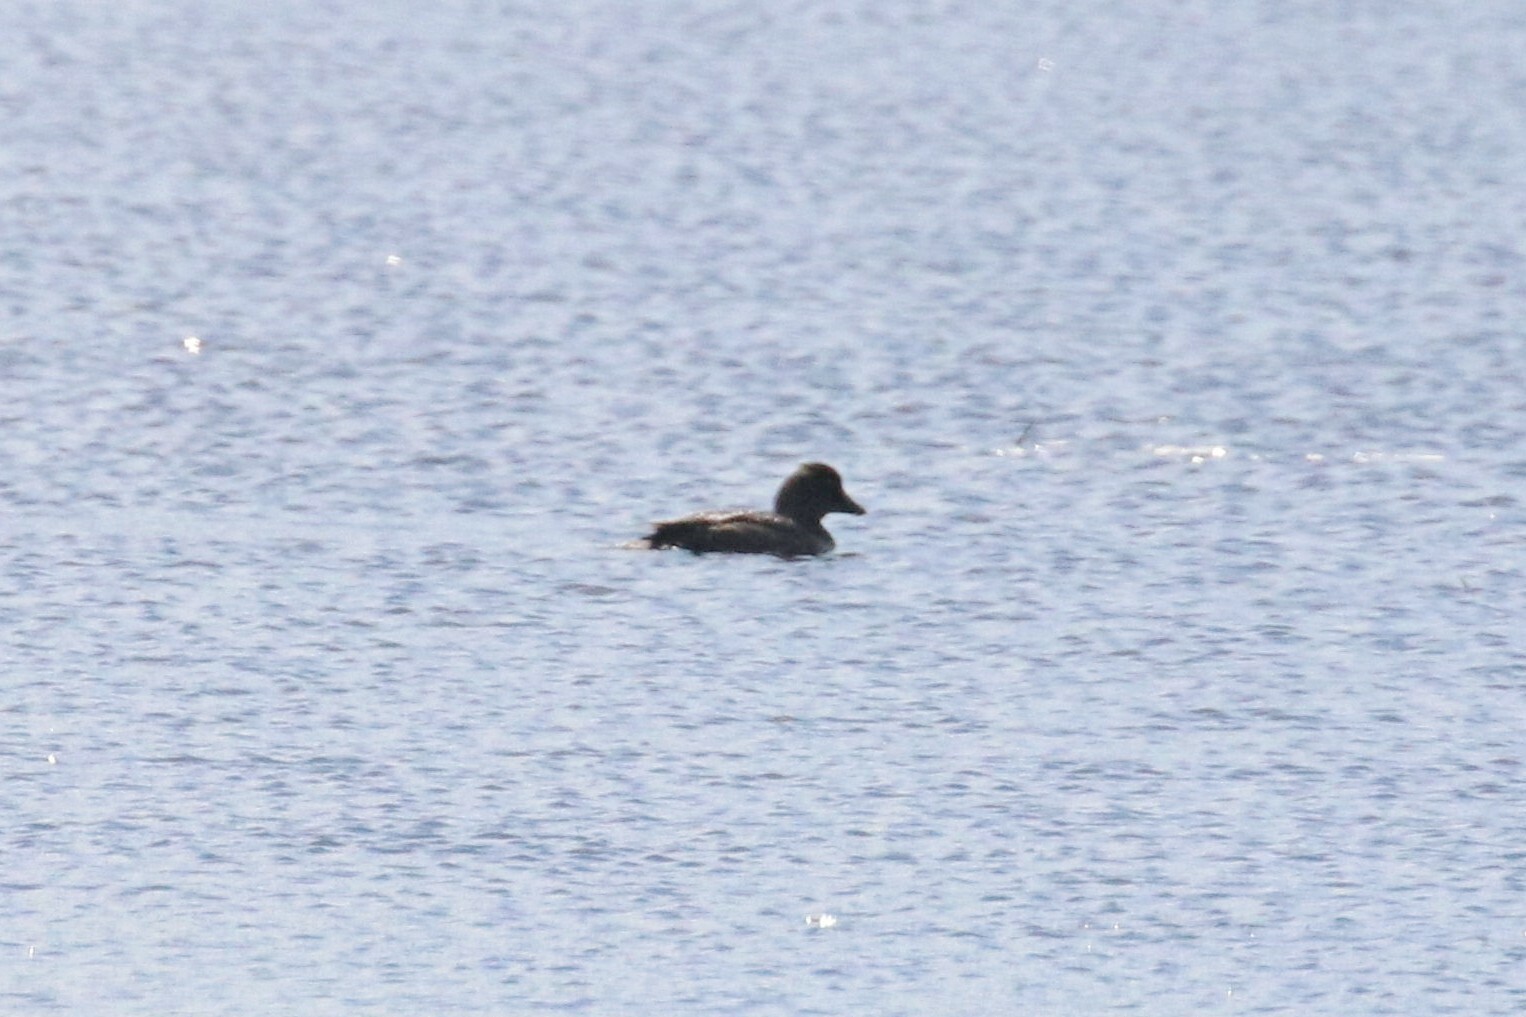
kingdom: Animalia
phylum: Chordata
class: Aves
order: Anseriformes
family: Anatidae
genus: Bucephala
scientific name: Bucephala clangula
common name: Common goldeneye
